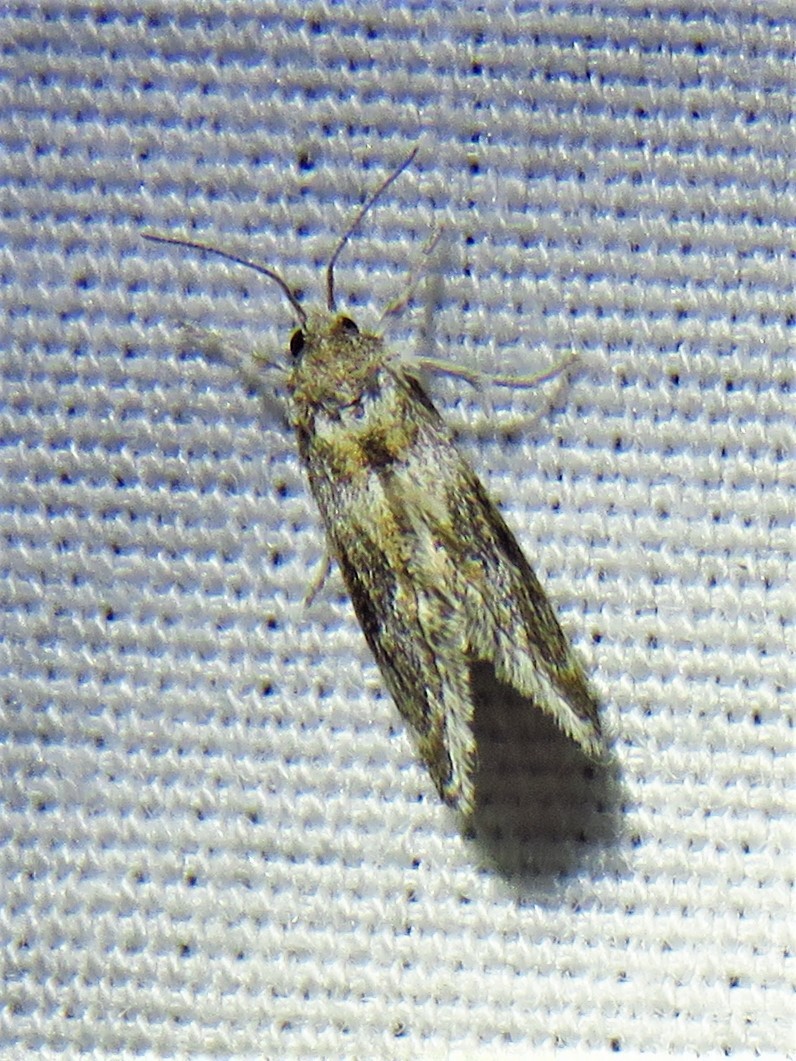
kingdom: Animalia
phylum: Arthropoda
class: Insecta
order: Lepidoptera
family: Crambidae
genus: Frechinia
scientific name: Frechinia helianthiales
